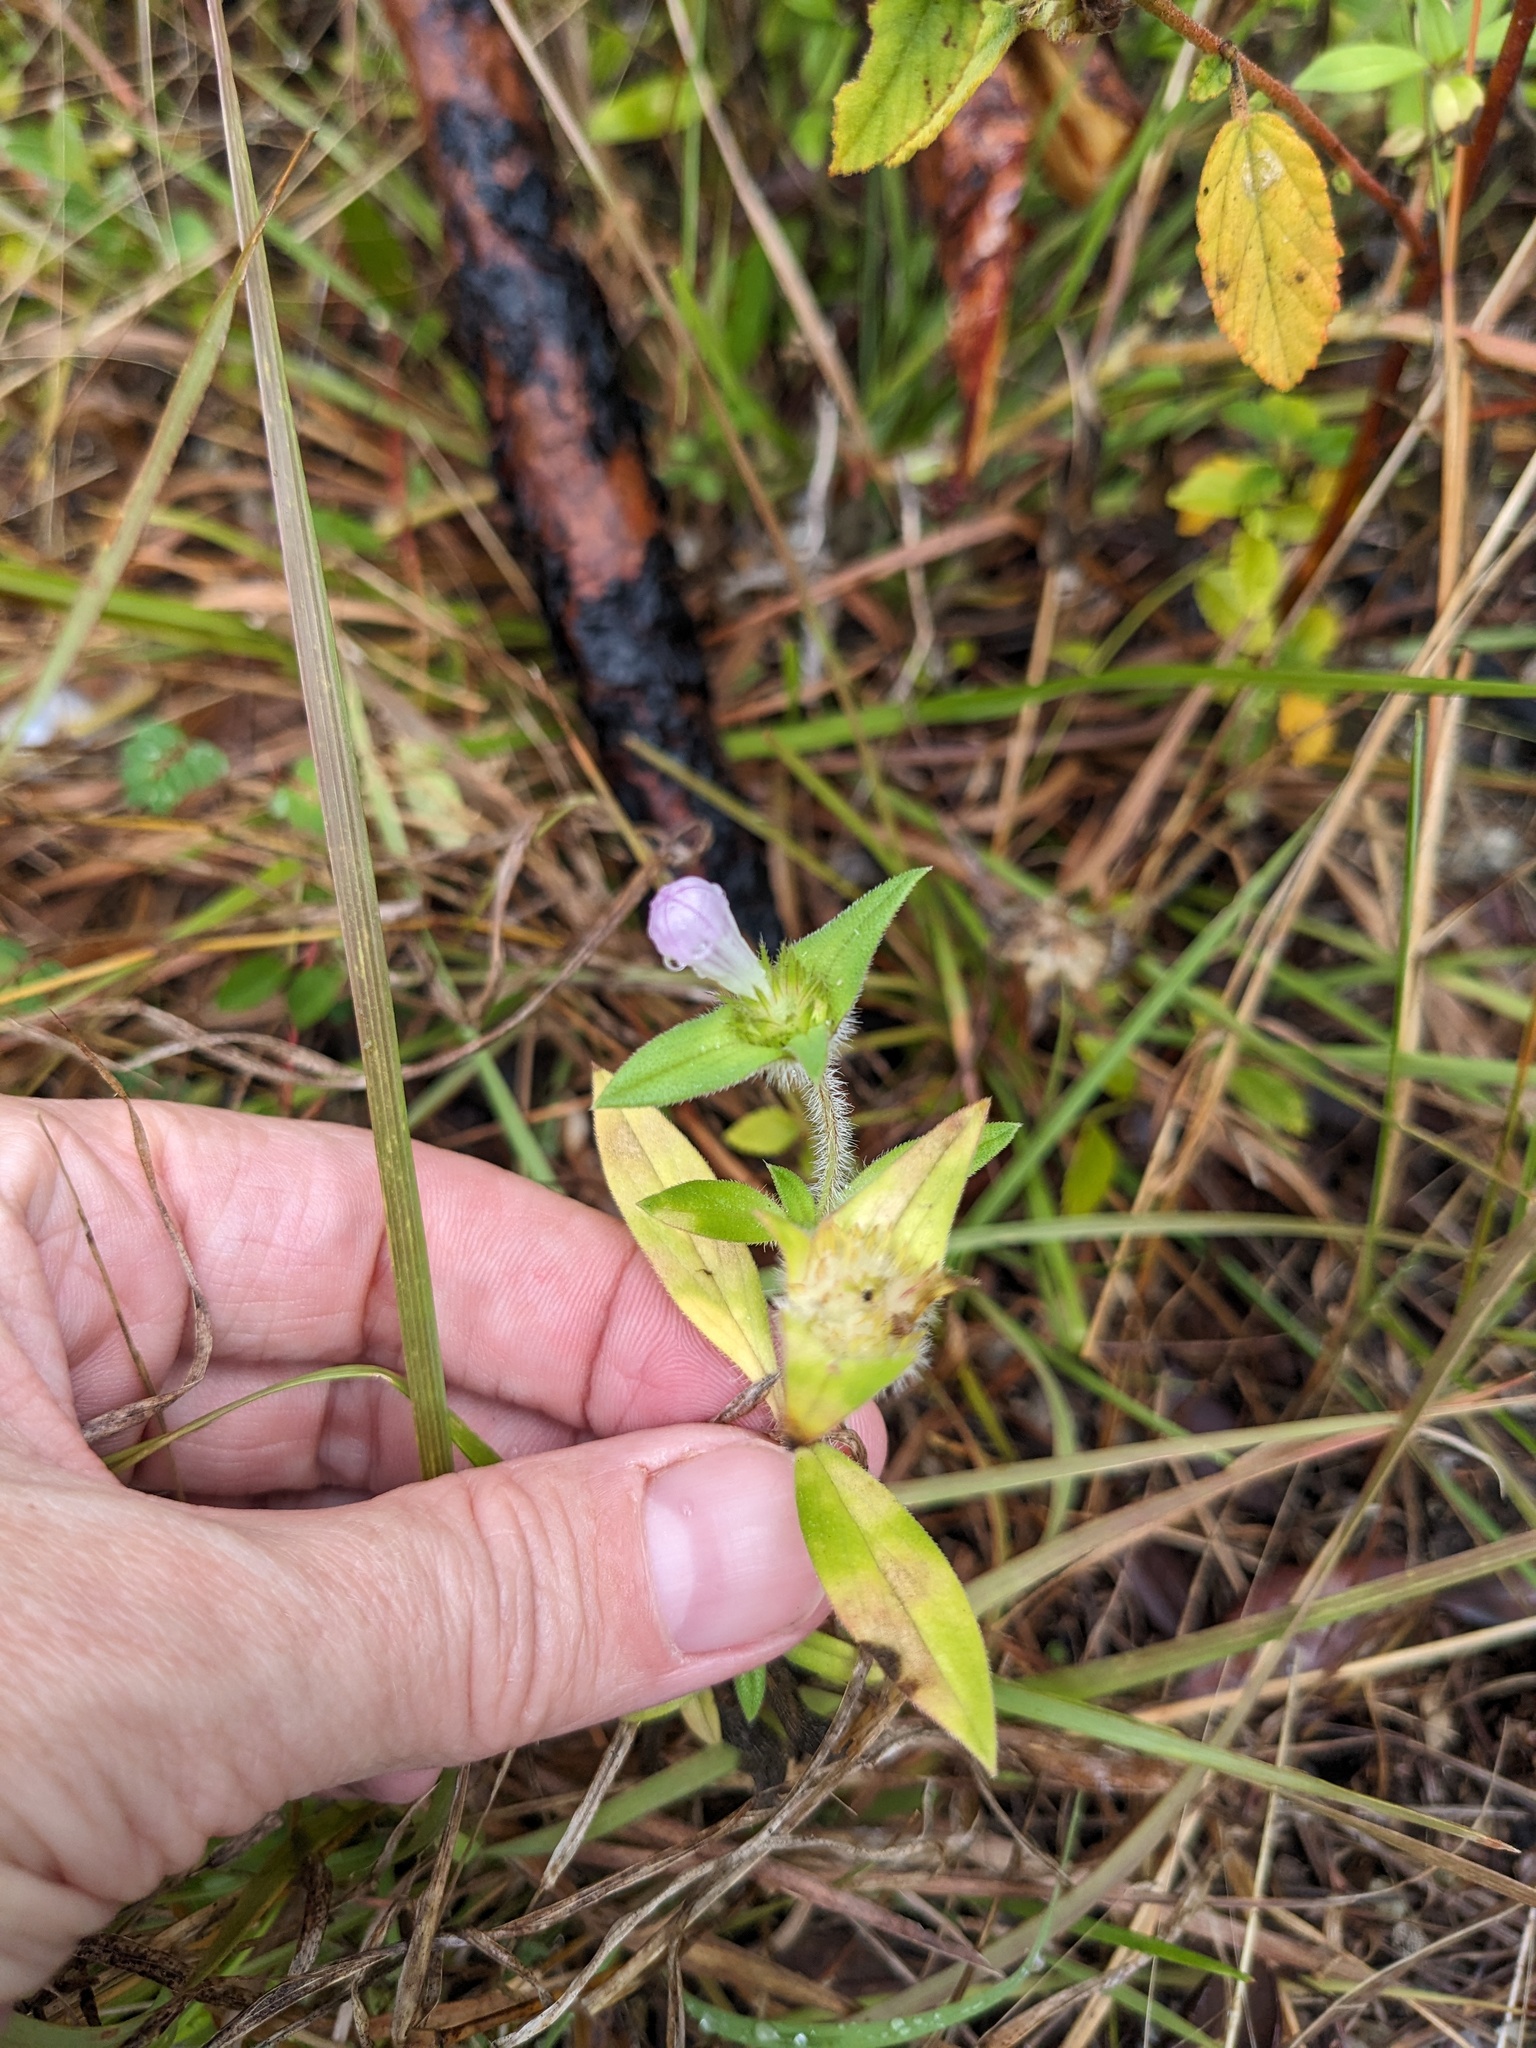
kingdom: Plantae
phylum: Tracheophyta
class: Magnoliopsida
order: Gentianales
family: Rubiaceae
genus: Richardia
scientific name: Richardia grandiflora
